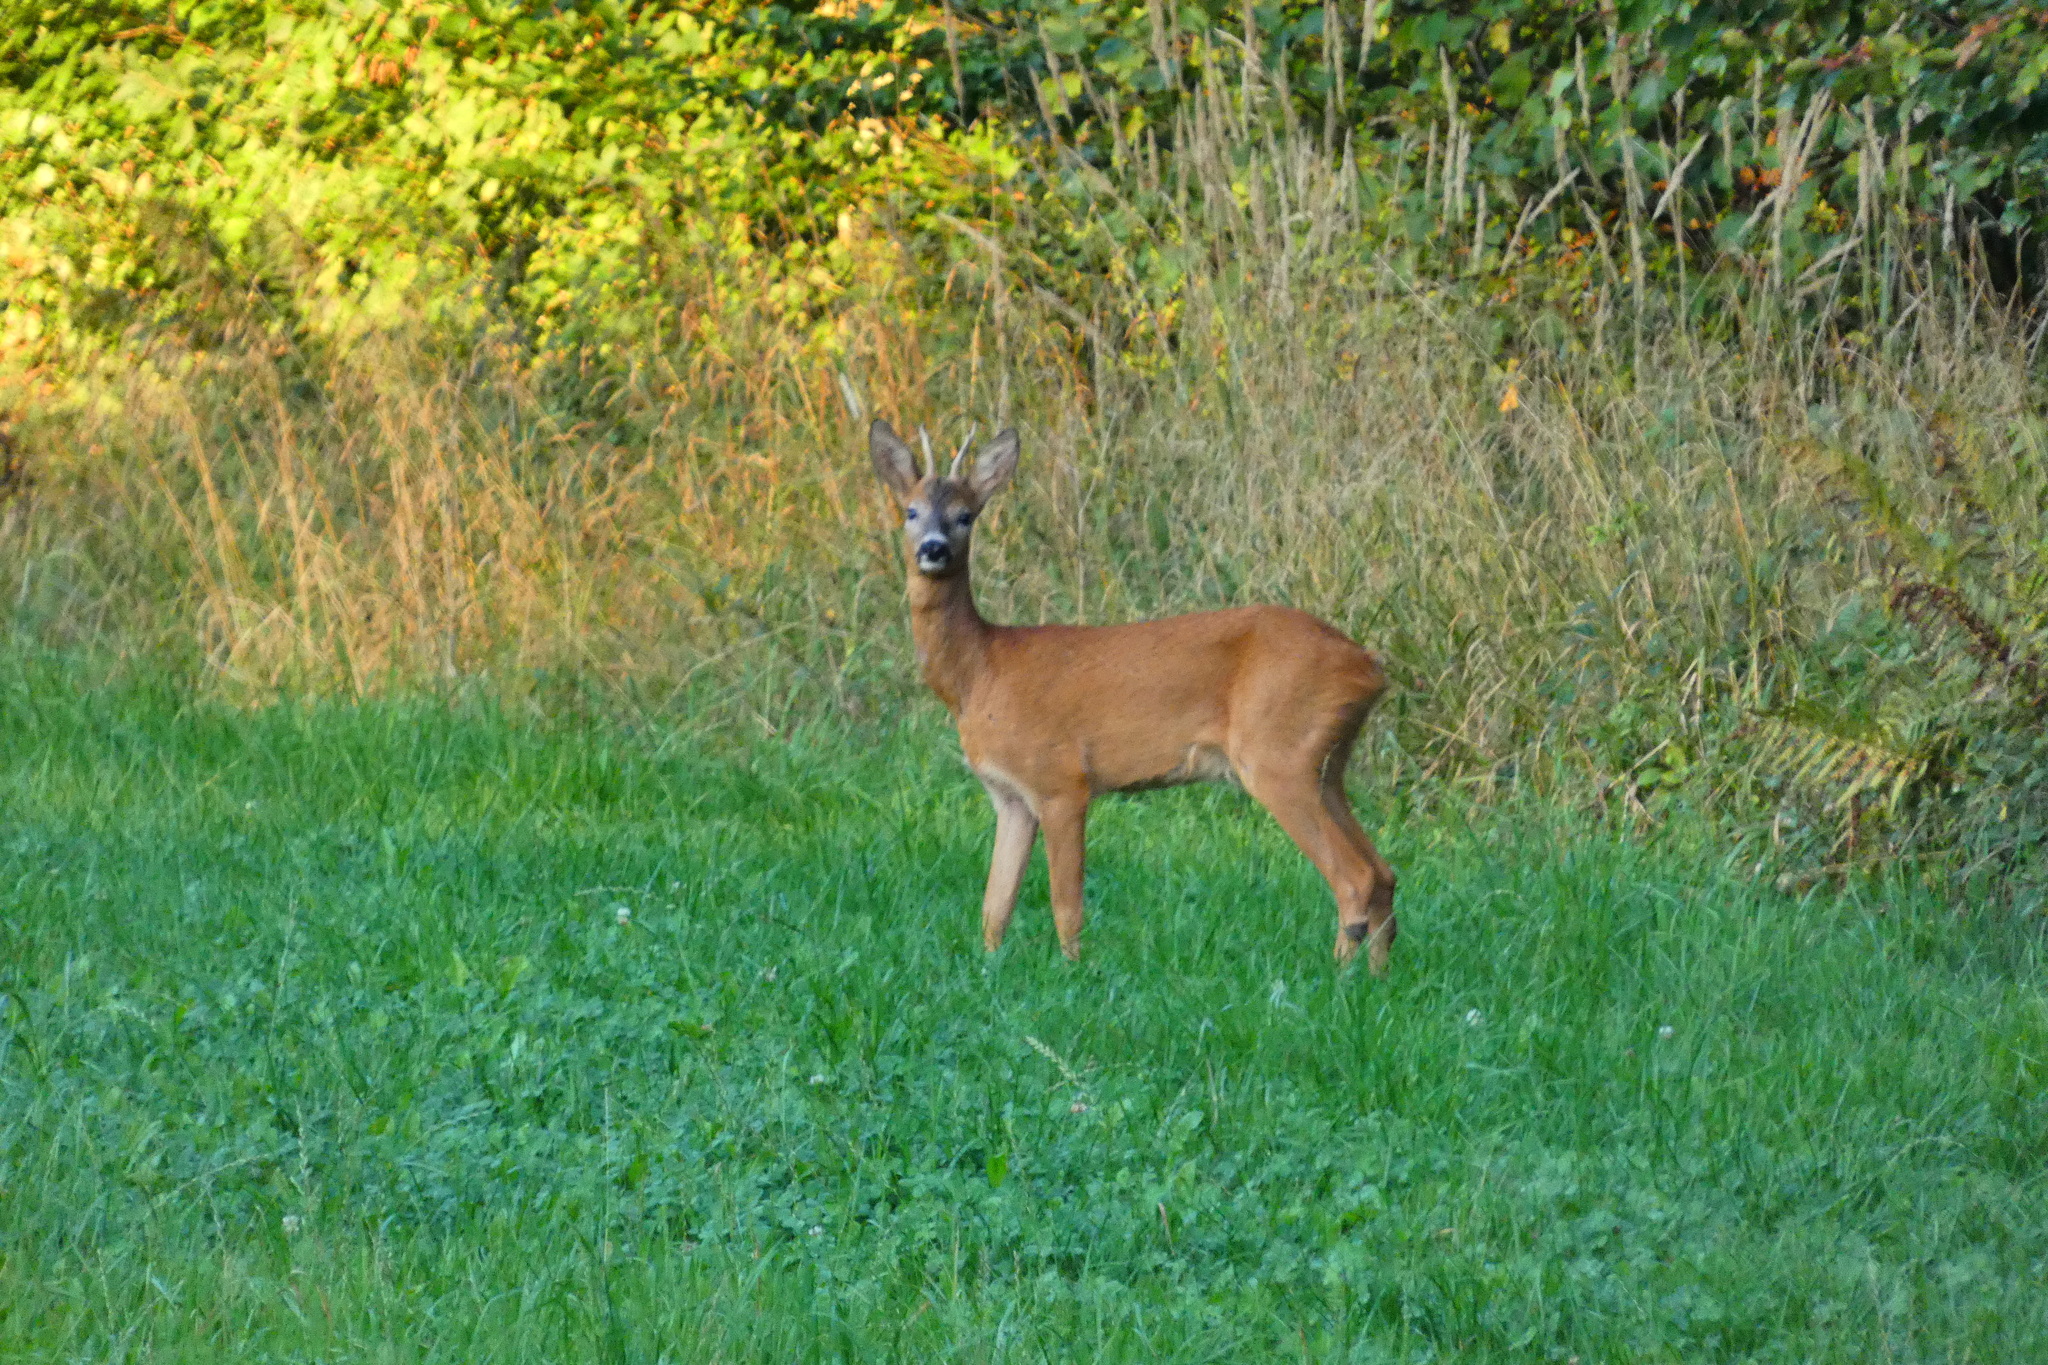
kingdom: Animalia
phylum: Chordata
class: Mammalia
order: Artiodactyla
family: Cervidae
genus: Capreolus
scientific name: Capreolus capreolus
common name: Western roe deer
